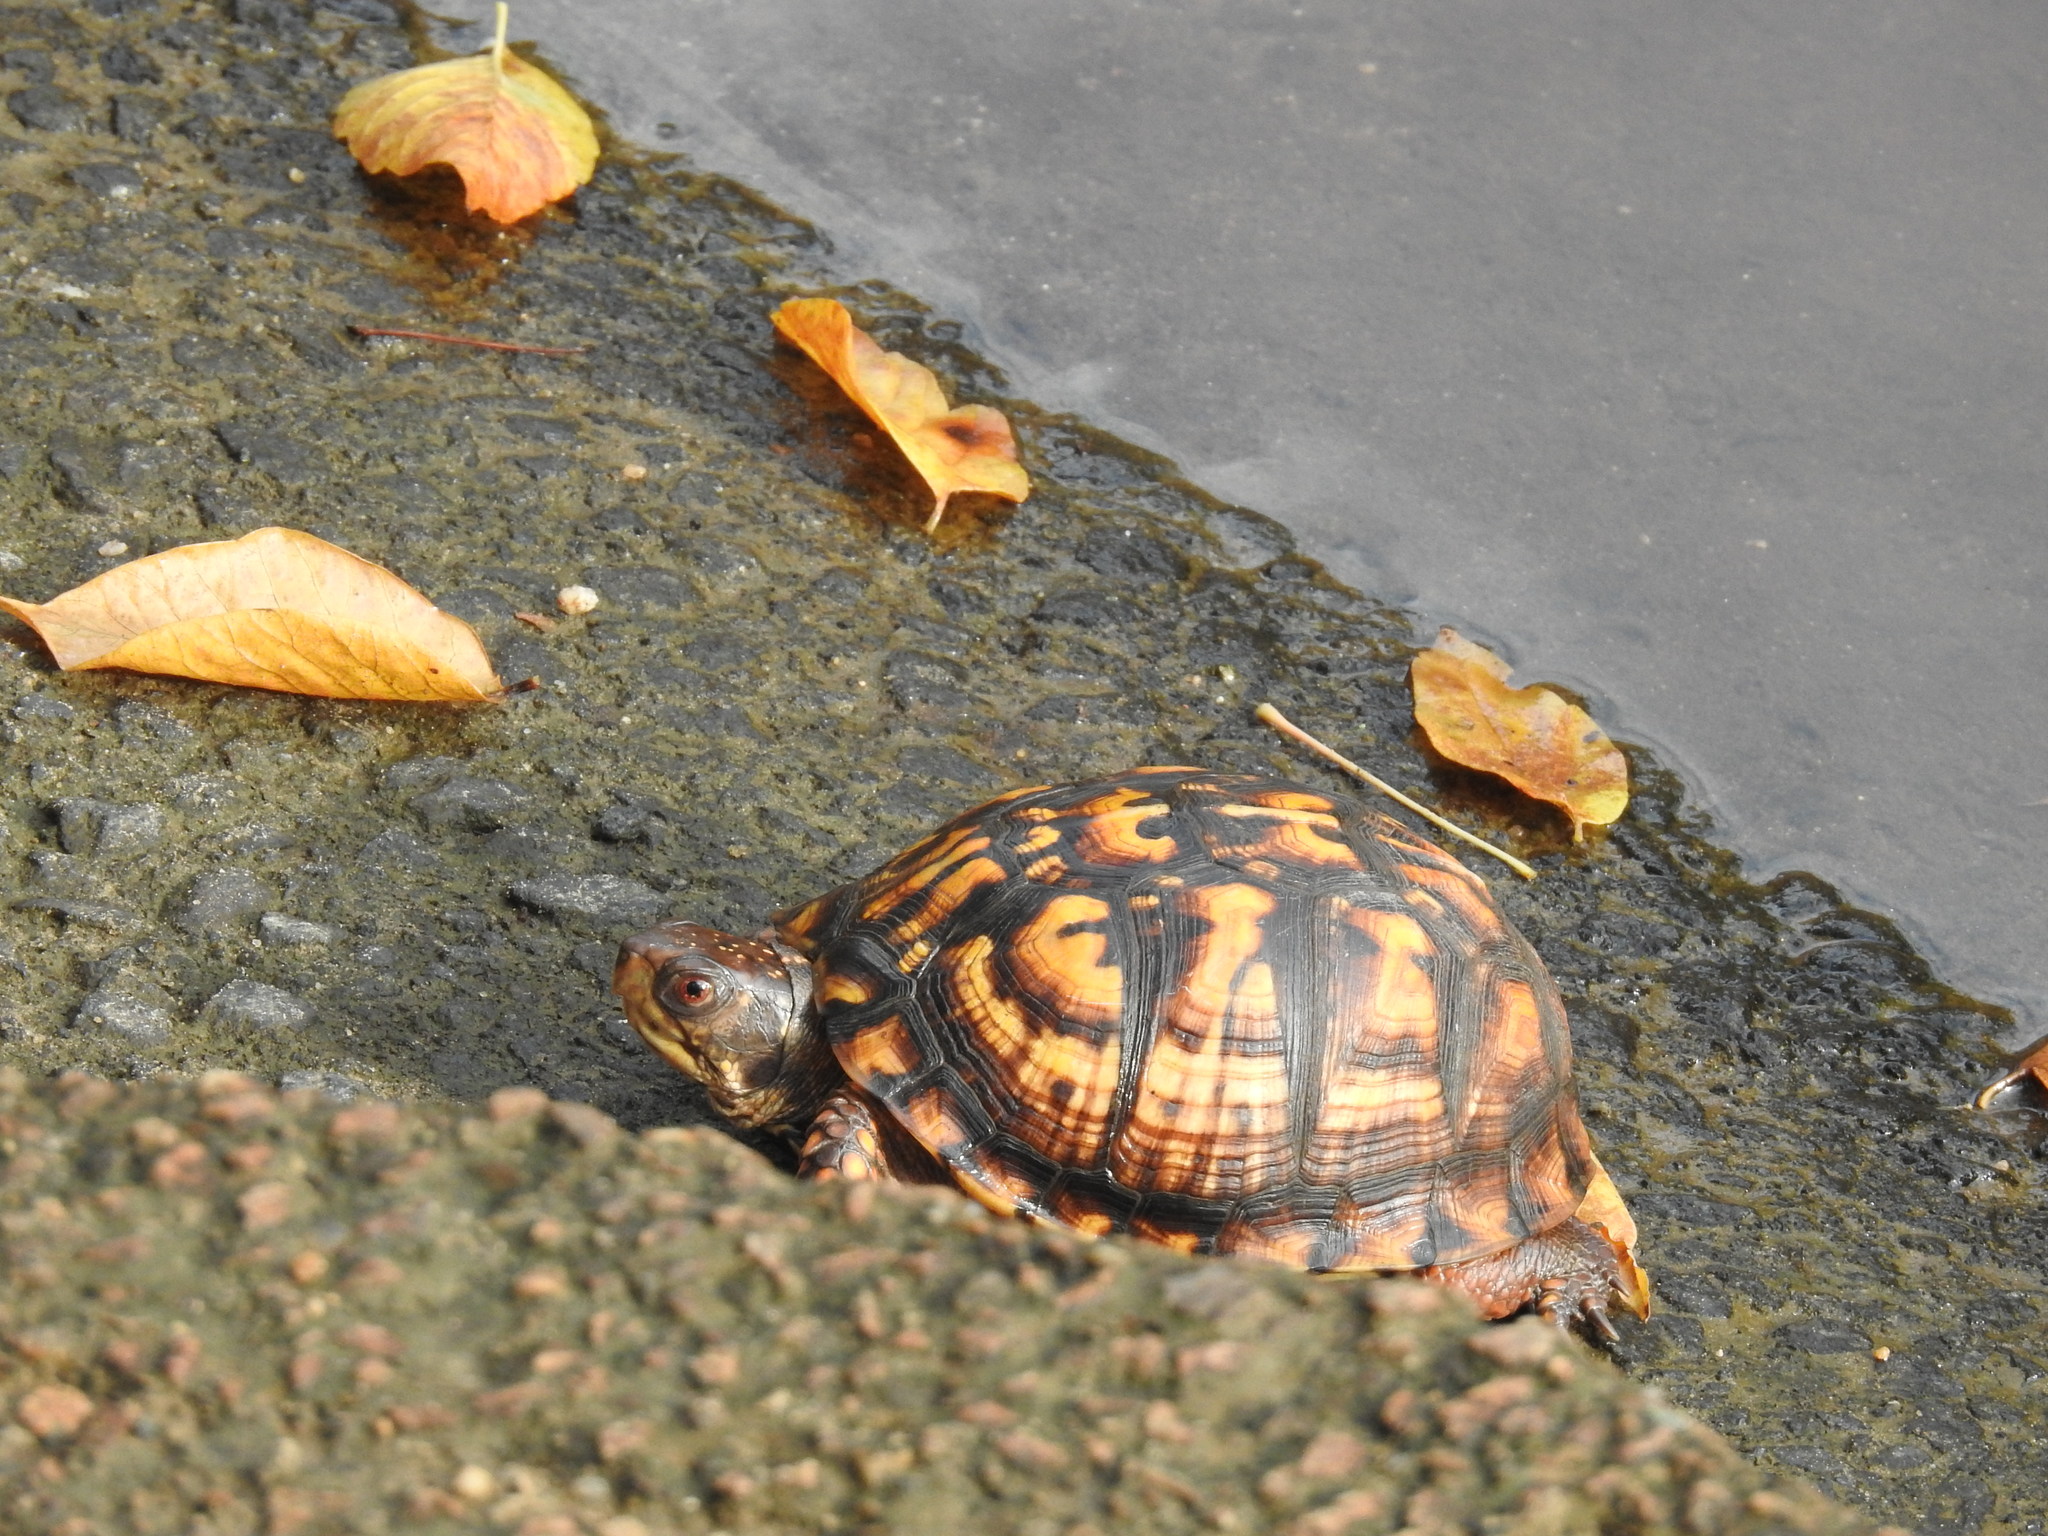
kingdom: Animalia
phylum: Chordata
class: Testudines
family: Emydidae
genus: Terrapene
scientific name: Terrapene carolina
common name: Common box turtle
